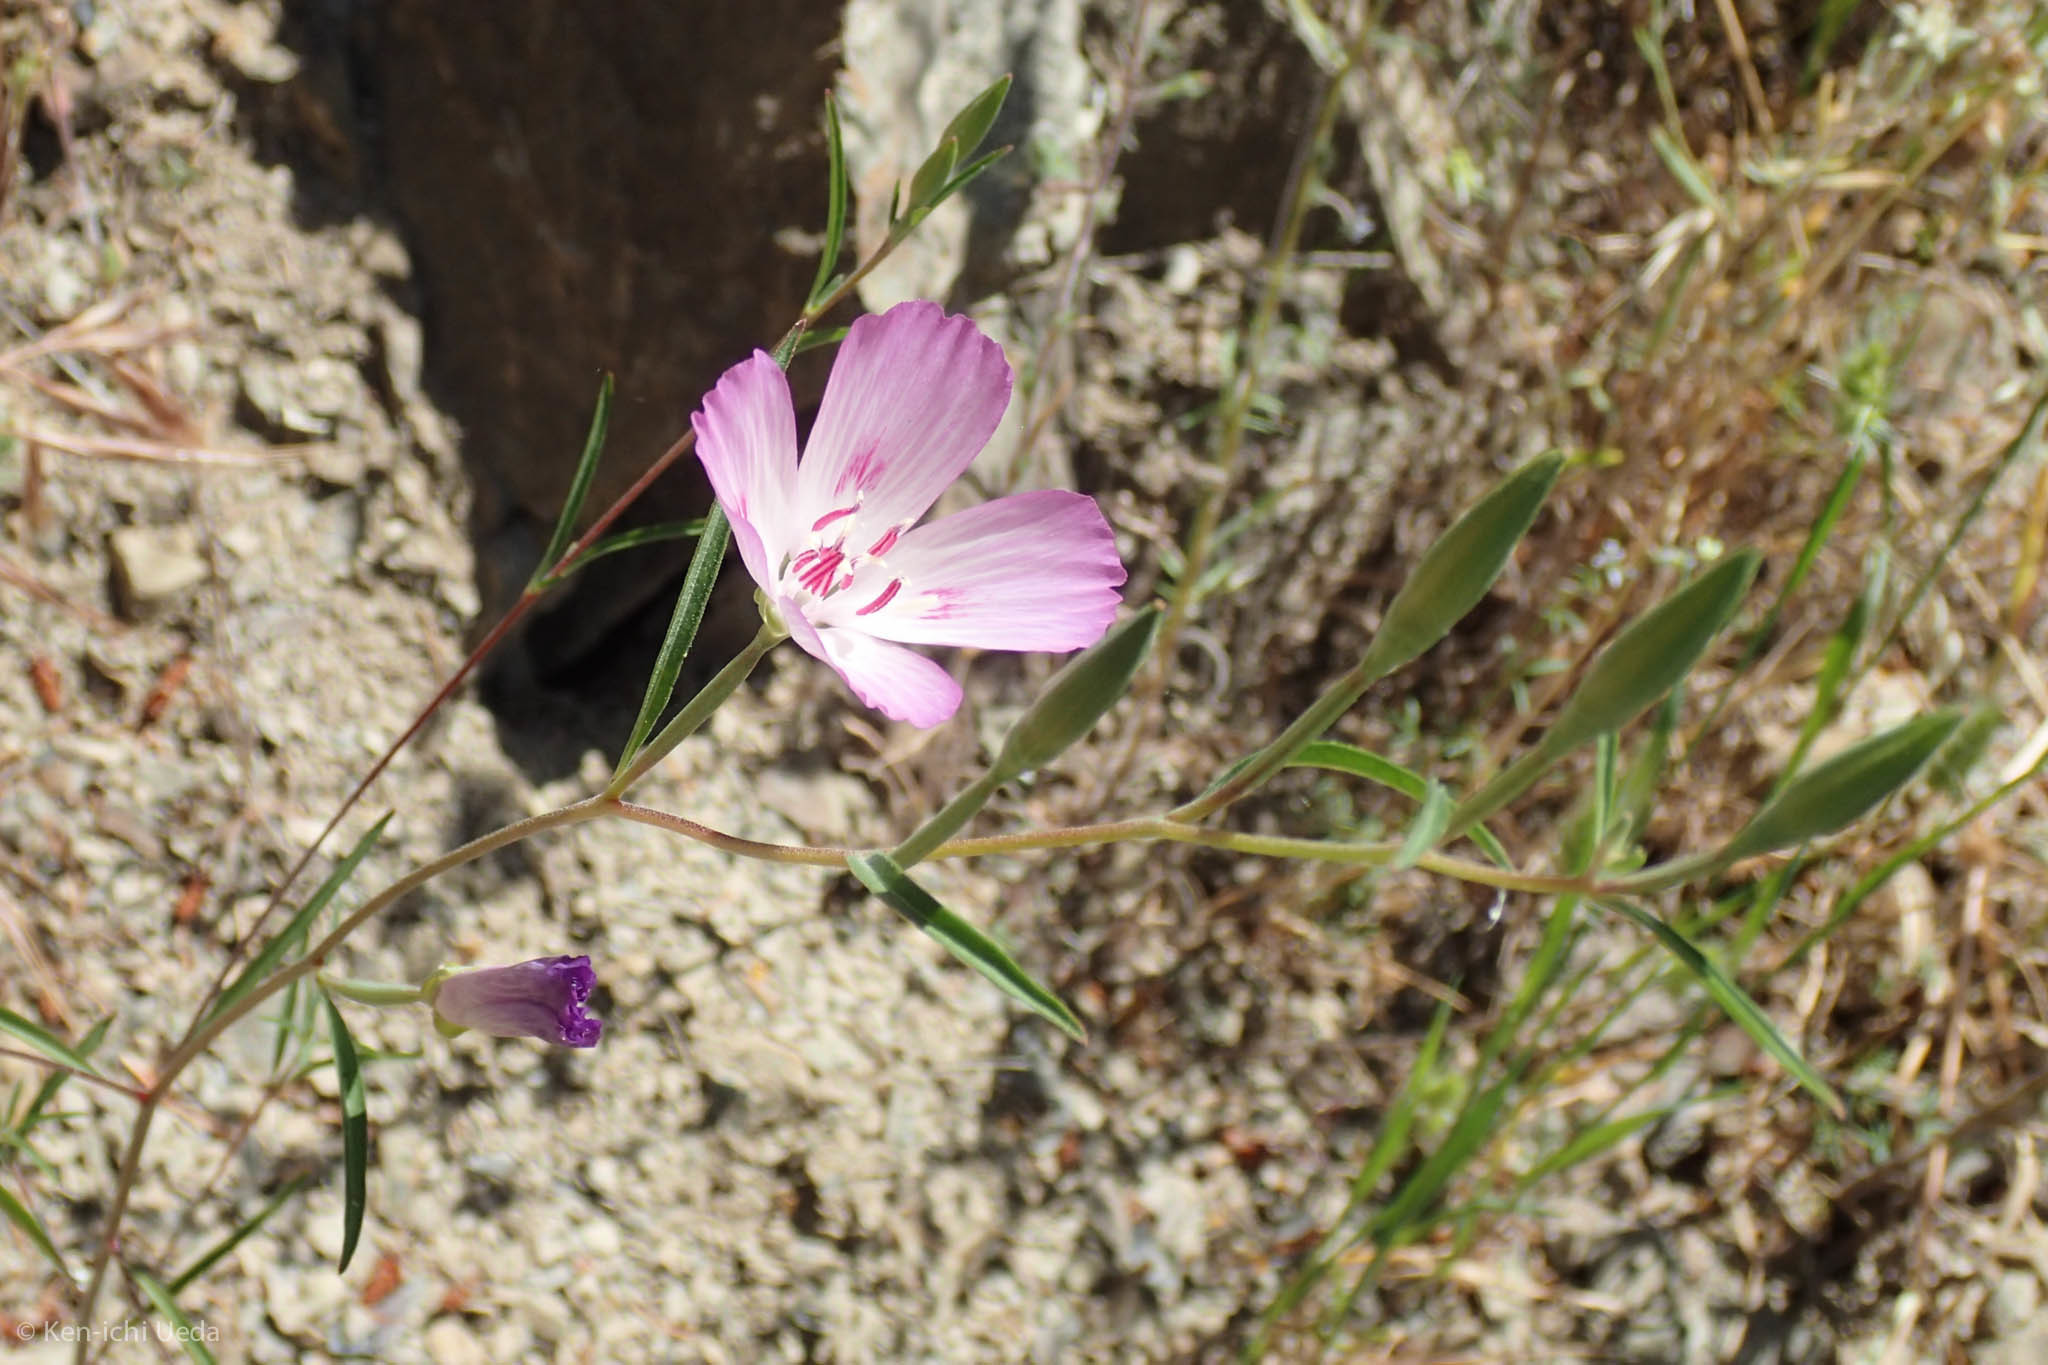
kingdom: Plantae
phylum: Tracheophyta
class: Magnoliopsida
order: Myrtales
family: Onagraceae
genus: Clarkia
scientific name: Clarkia amoena
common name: Godetia
